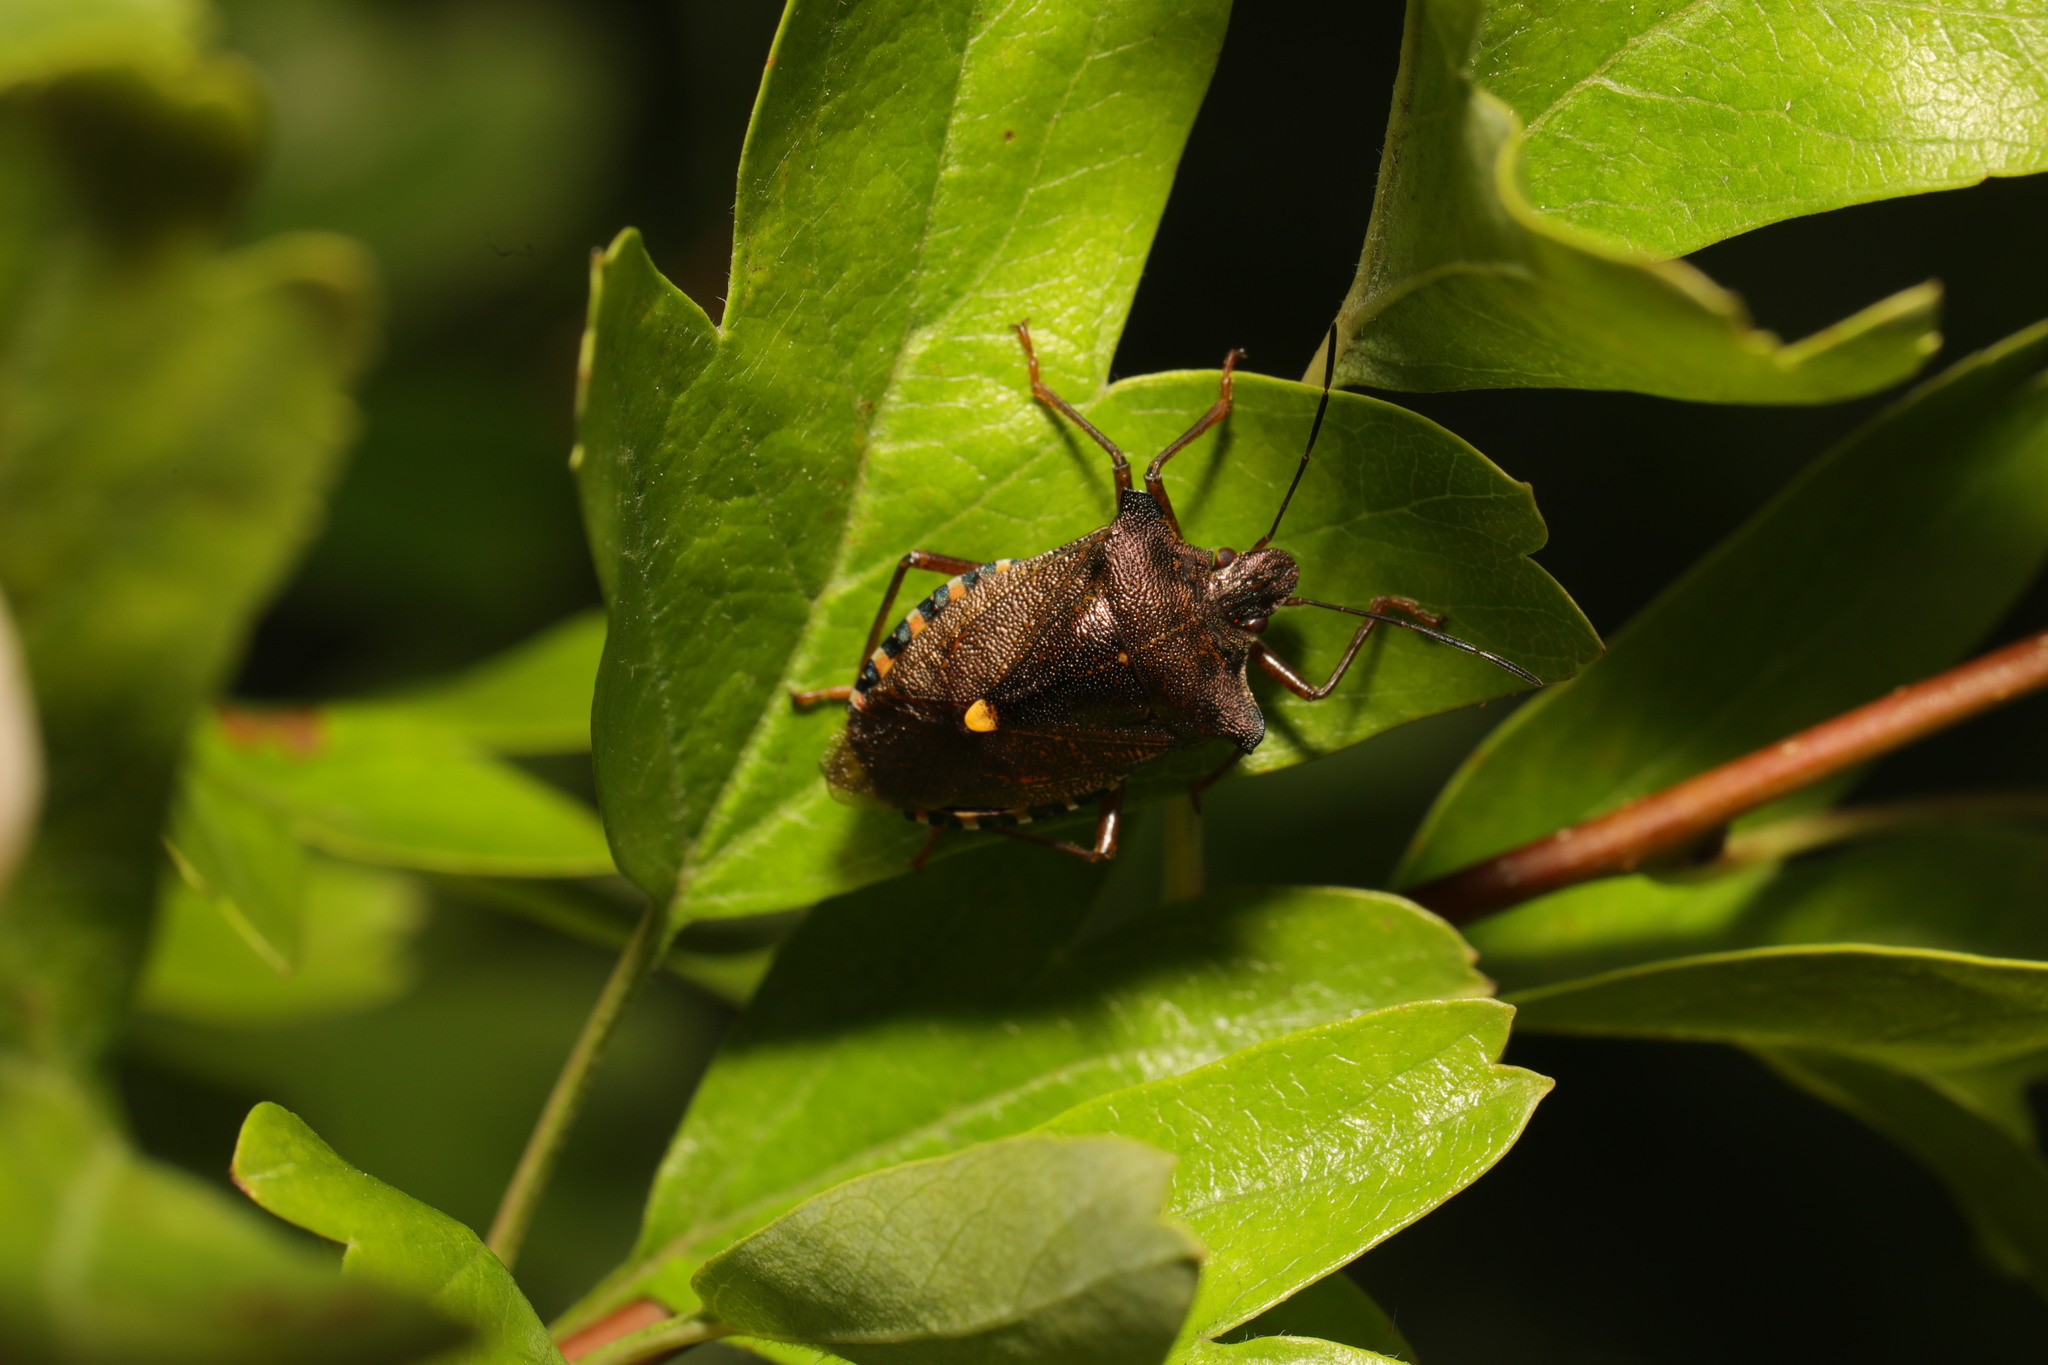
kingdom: Animalia
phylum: Arthropoda
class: Insecta
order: Hemiptera
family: Pentatomidae
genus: Pentatoma
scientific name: Pentatoma rufipes
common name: Forest bug
